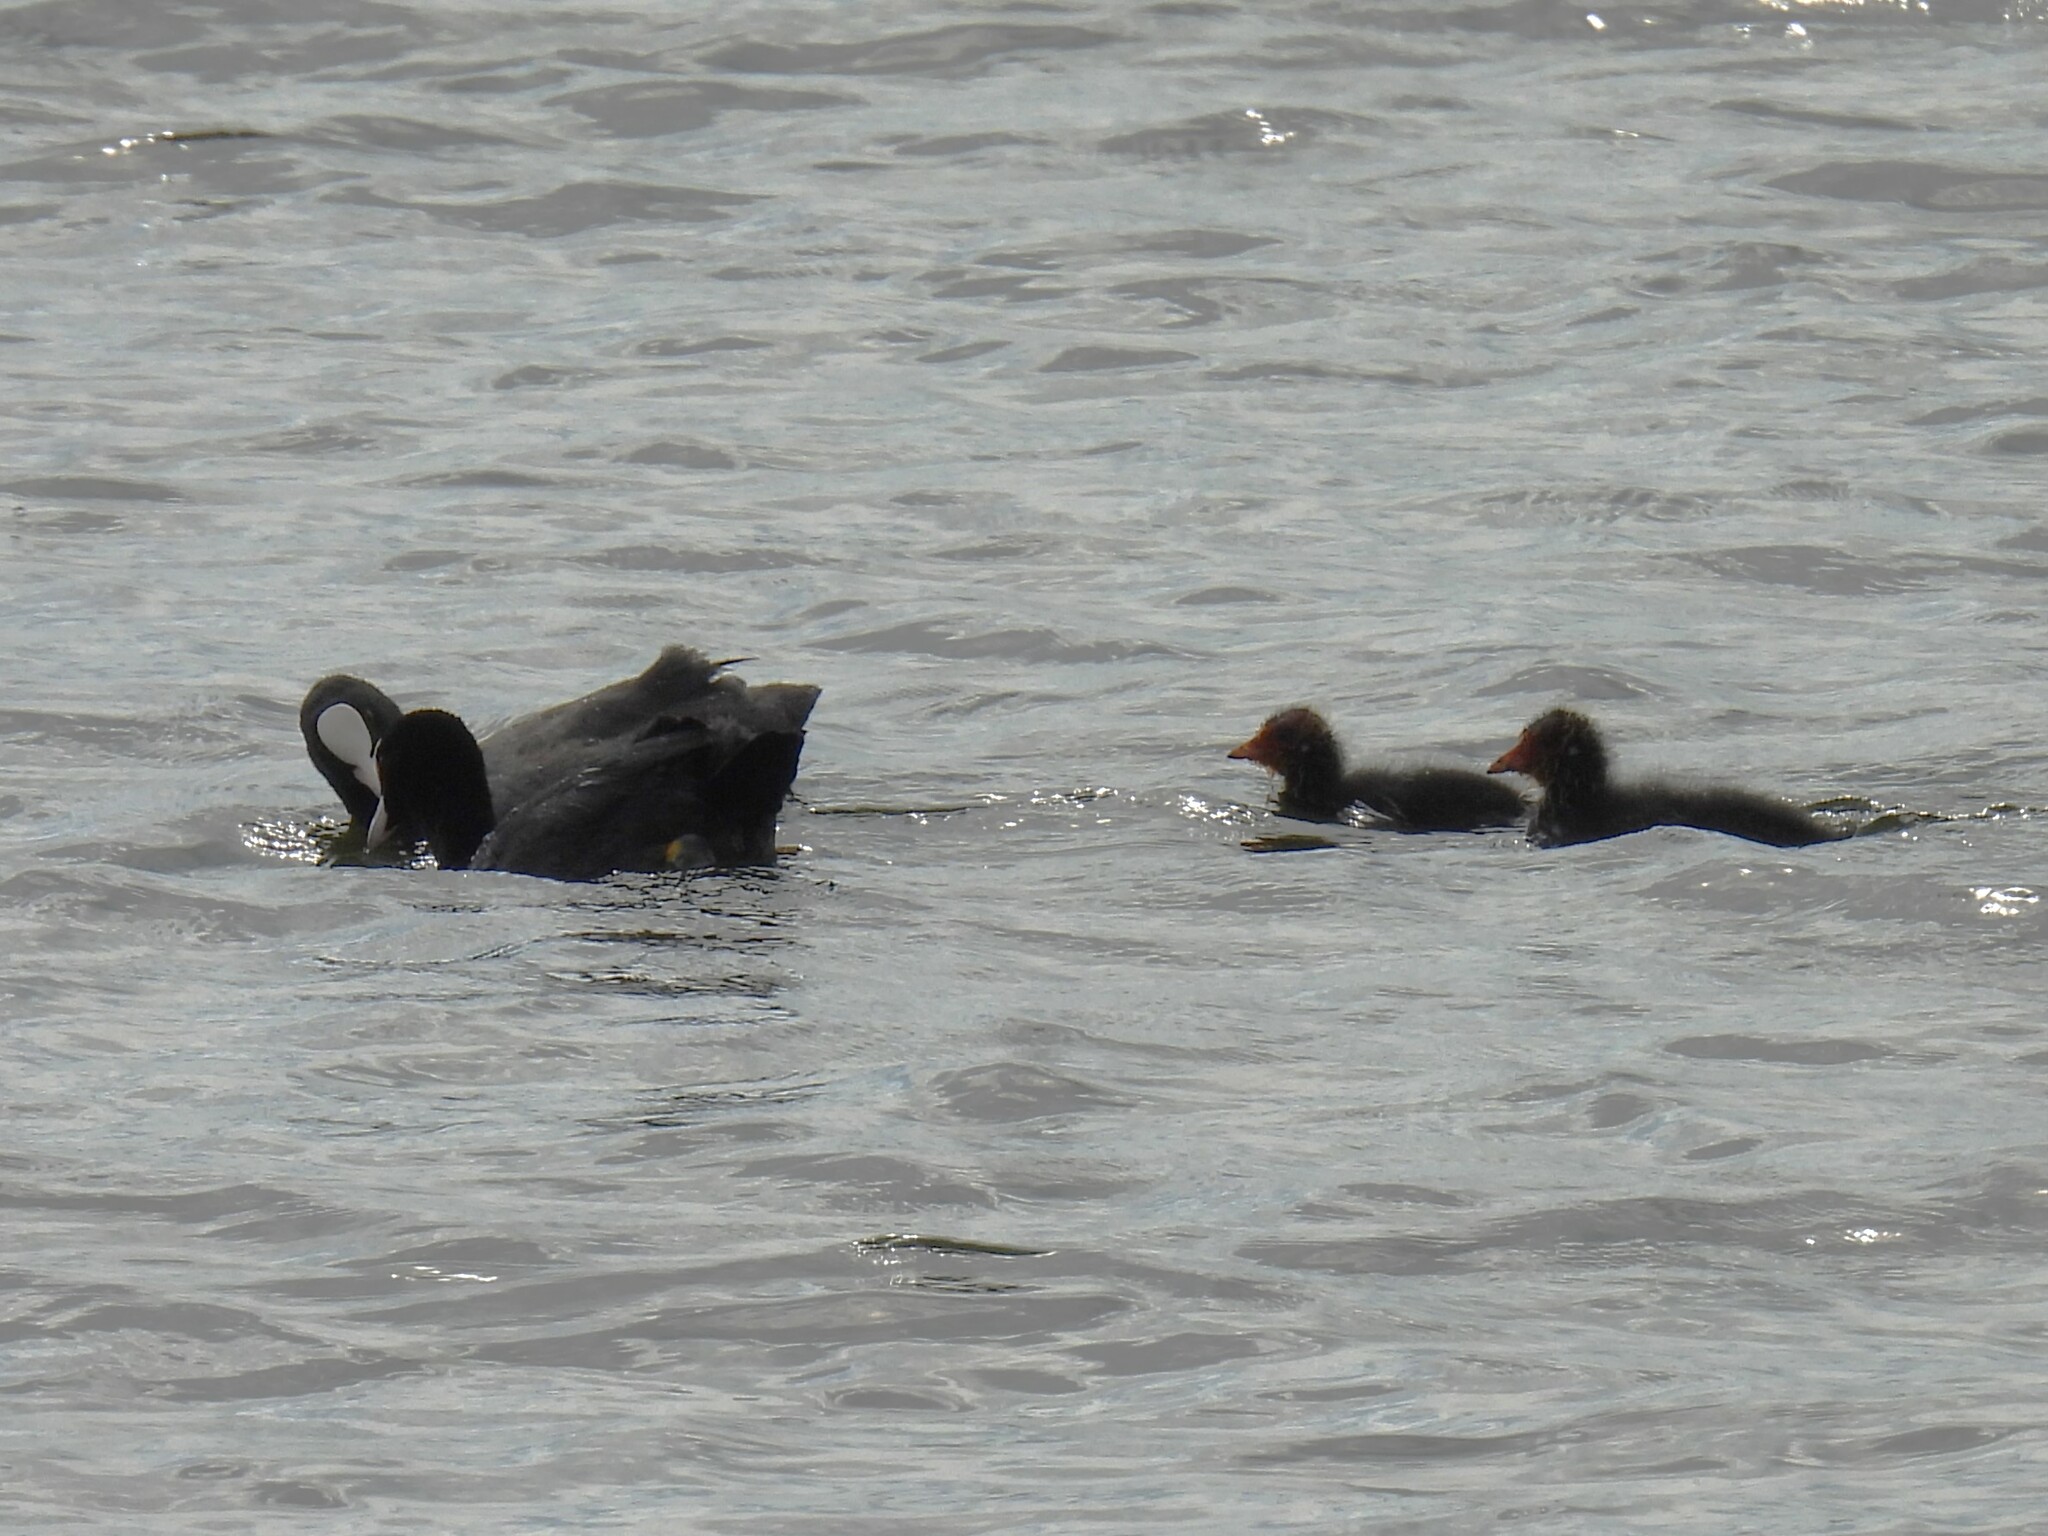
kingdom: Animalia
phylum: Chordata
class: Aves
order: Gruiformes
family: Rallidae
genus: Fulica
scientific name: Fulica atra
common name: Eurasian coot
